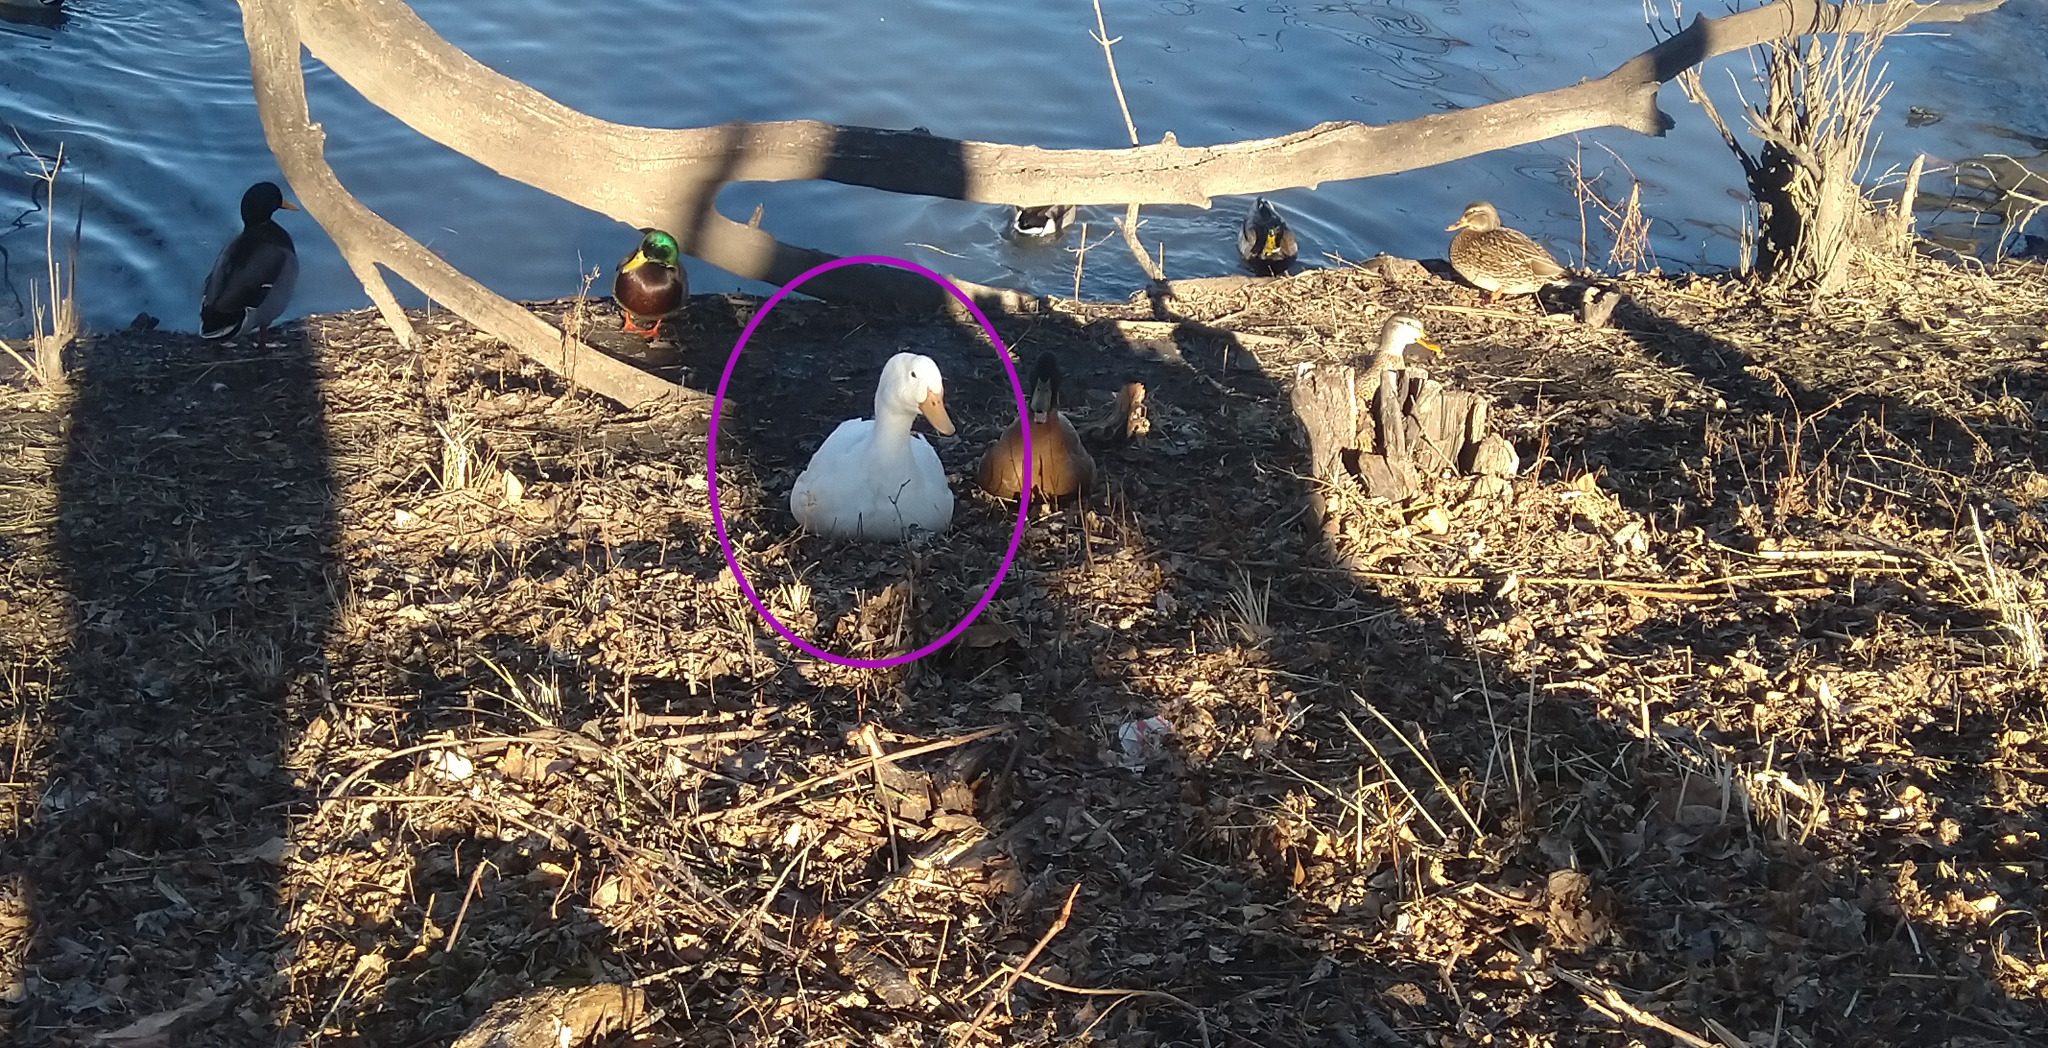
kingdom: Animalia
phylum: Chordata
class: Aves
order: Anseriformes
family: Anatidae
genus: Anas
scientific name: Anas platyrhynchos
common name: Mallard
